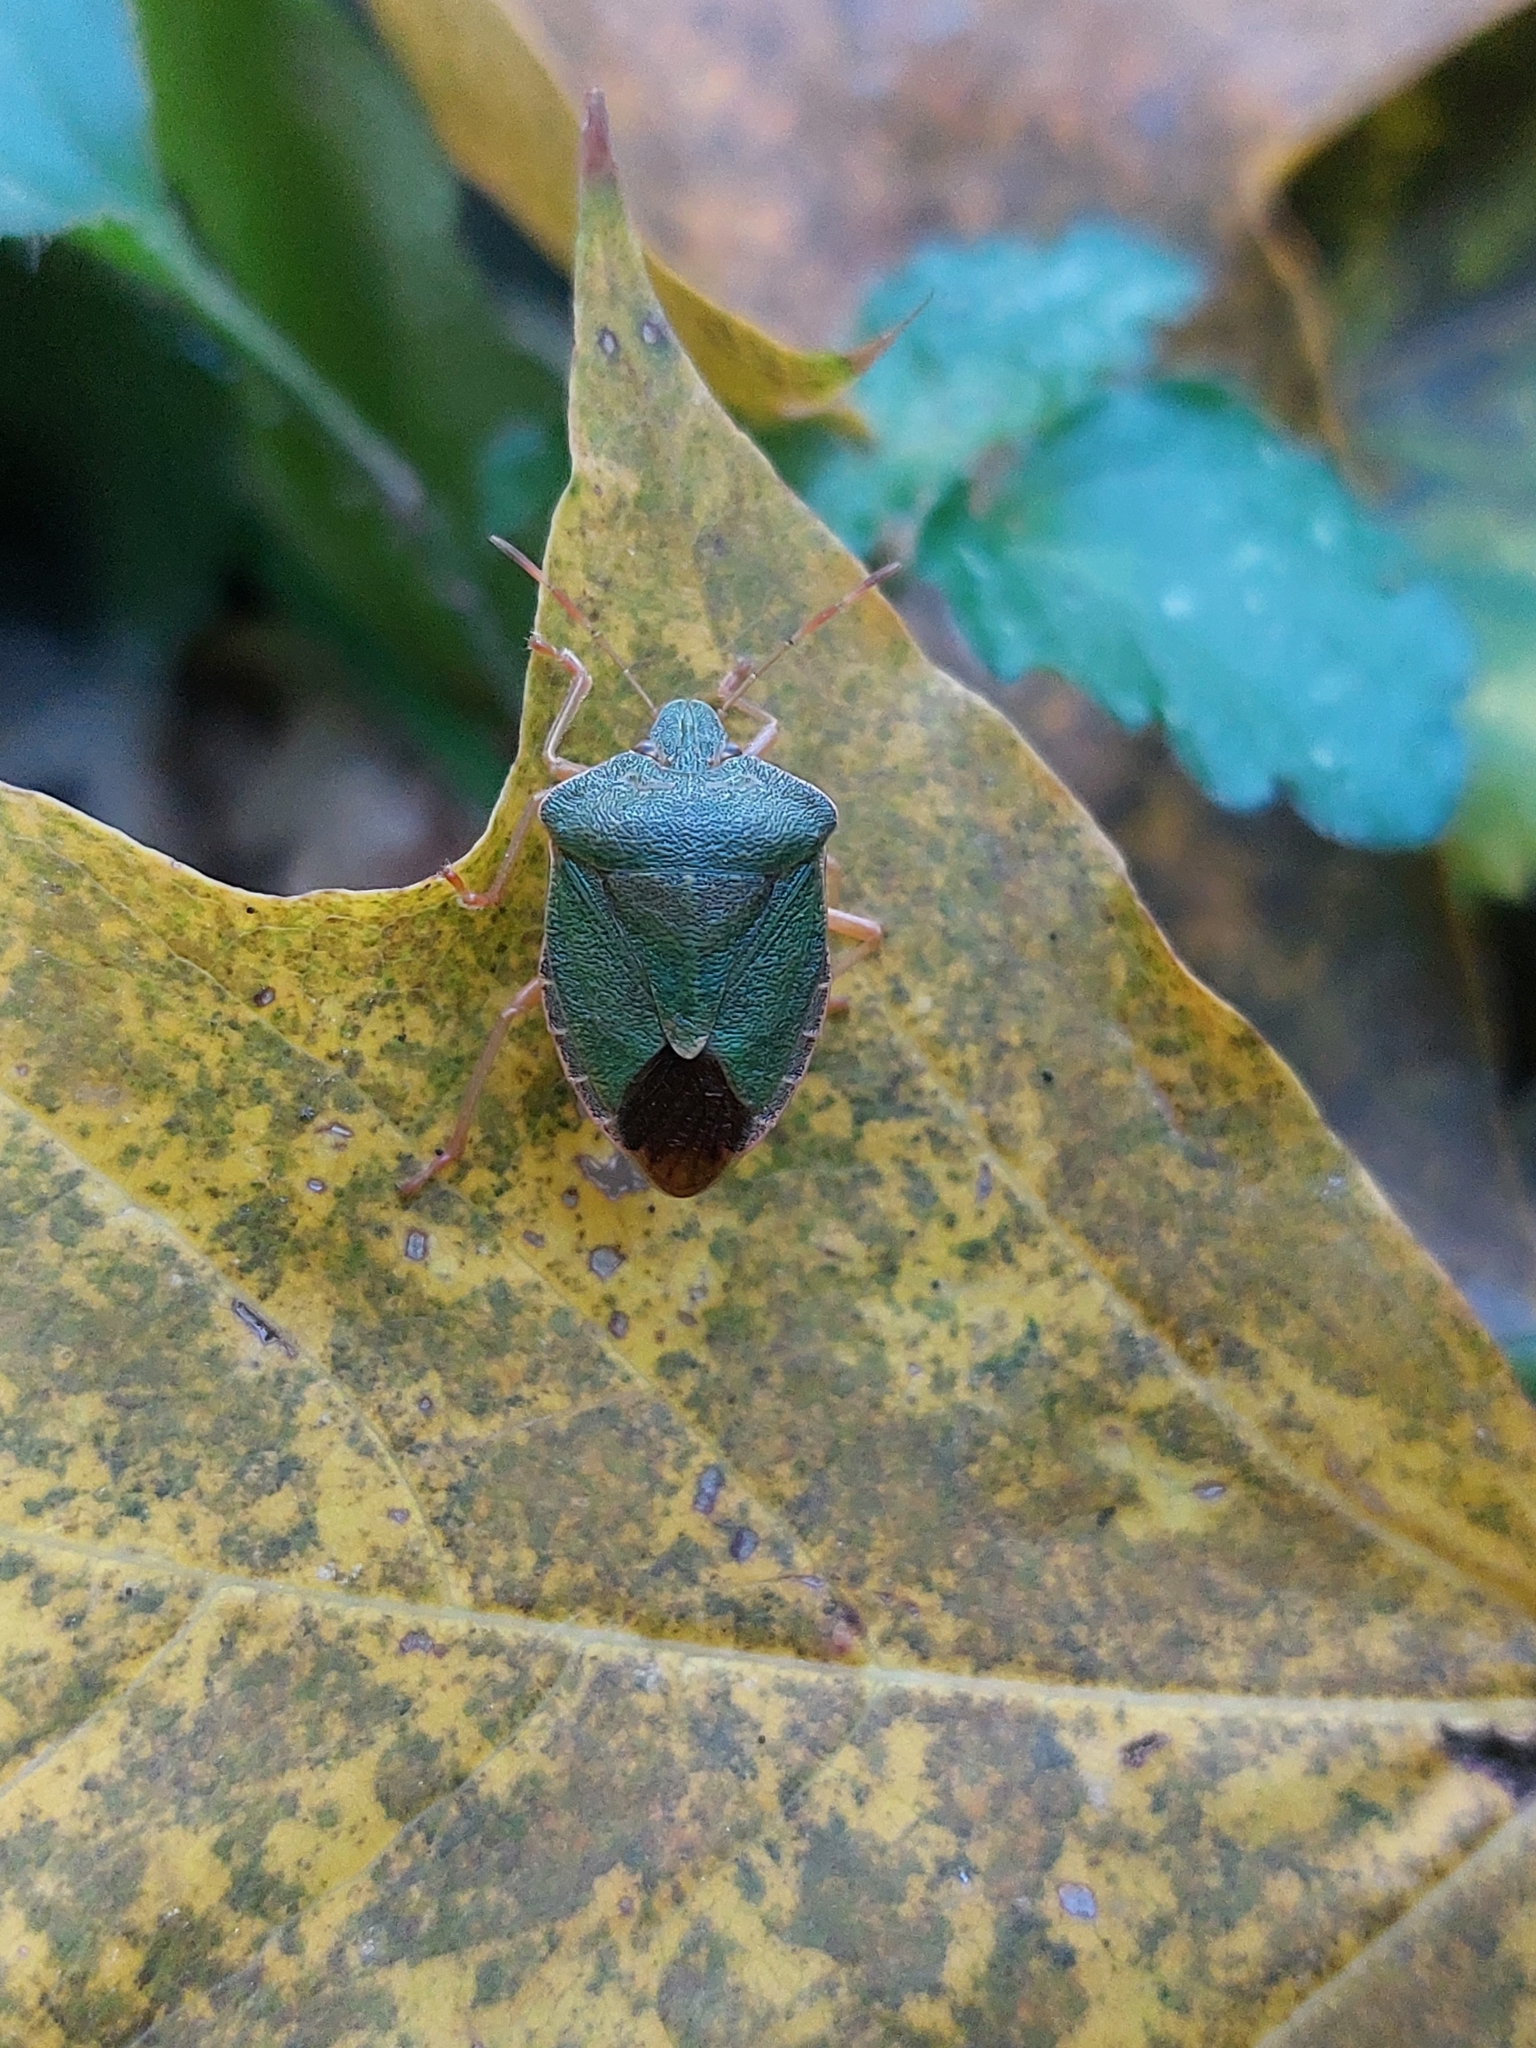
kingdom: Animalia
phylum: Arthropoda
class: Insecta
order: Hemiptera
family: Pentatomidae
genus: Palomena
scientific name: Palomena prasina
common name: Green shieldbug
